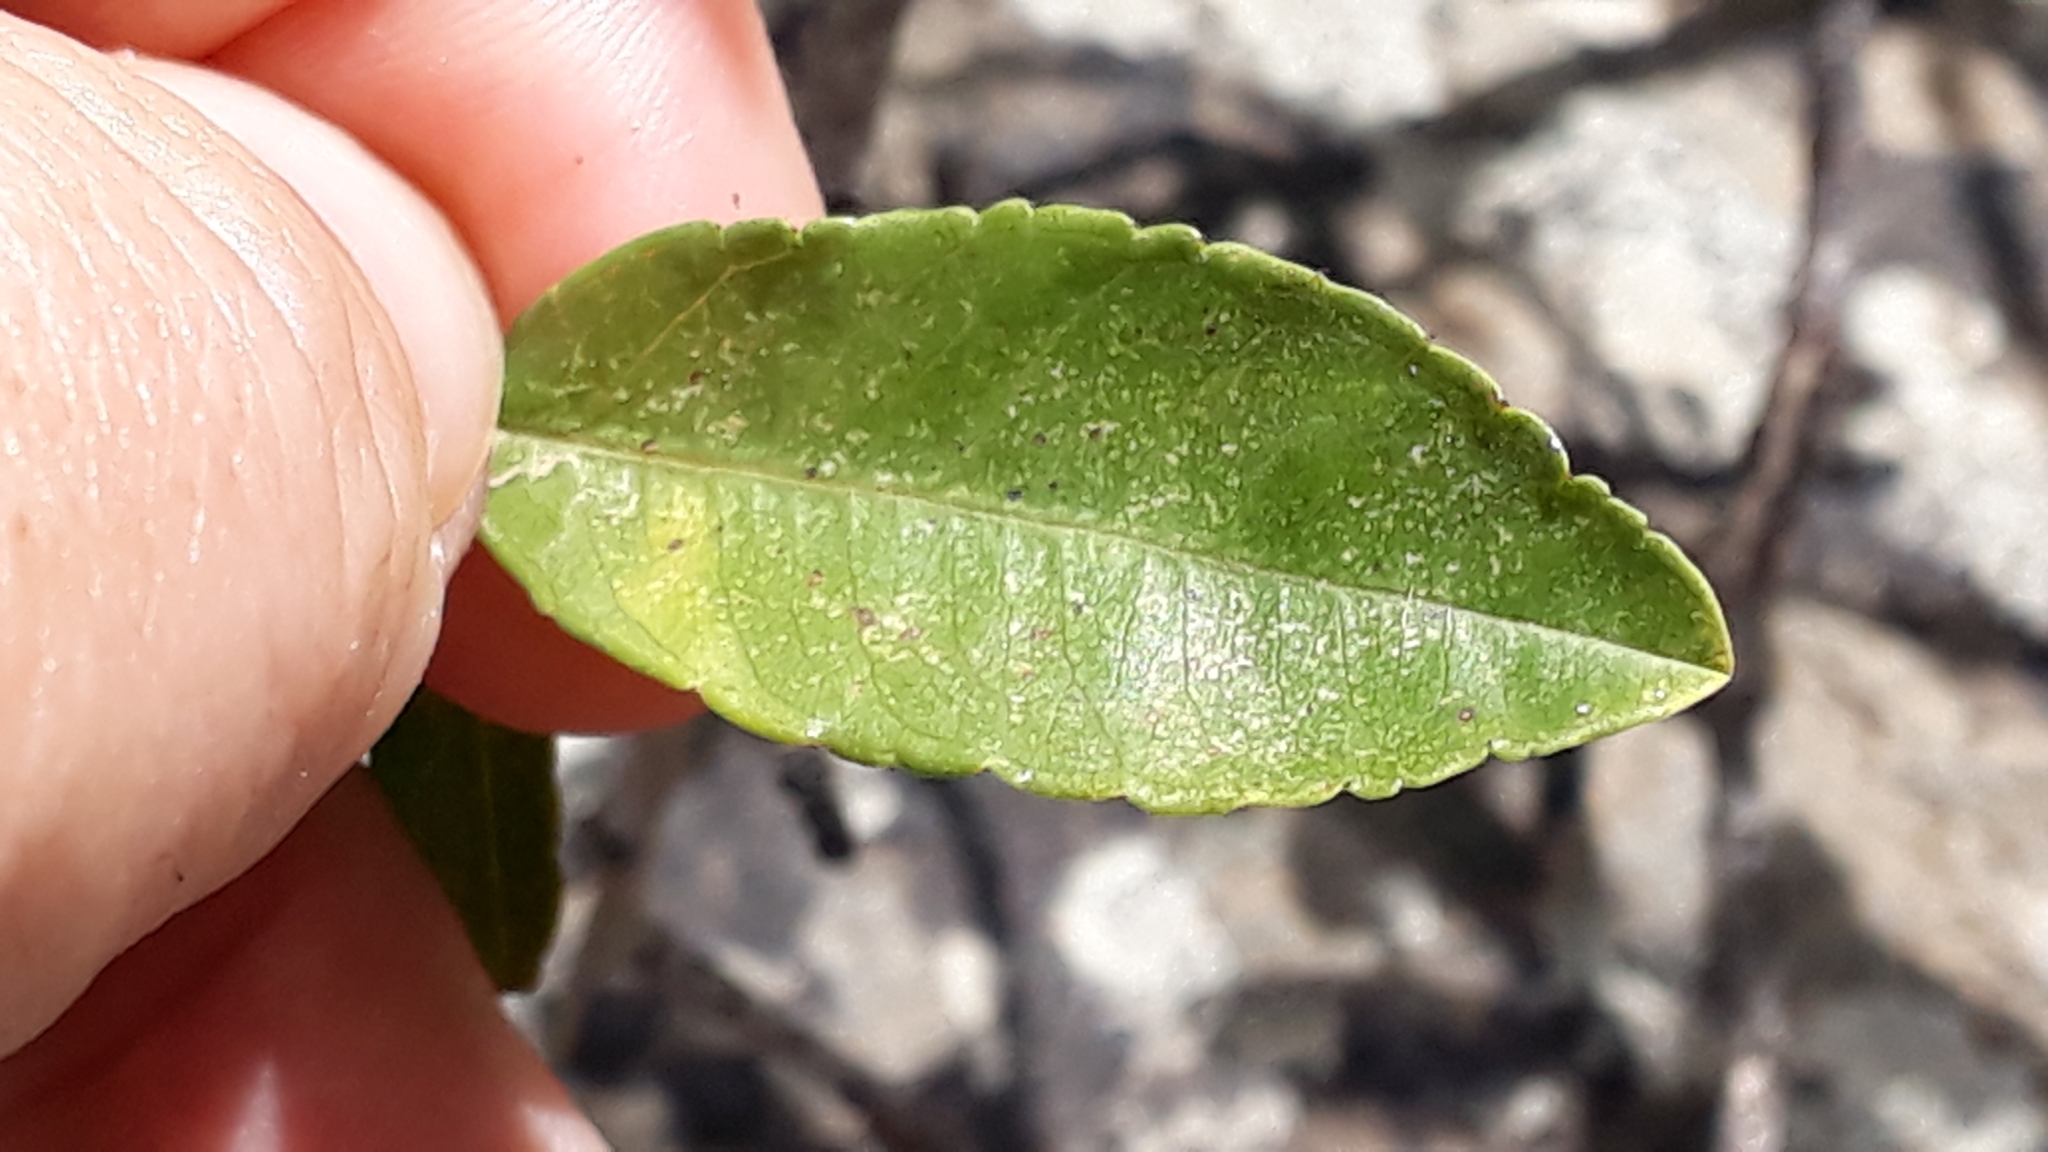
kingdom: Plantae
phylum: Tracheophyta
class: Magnoliopsida
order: Rosales
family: Rhamnaceae
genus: Rhamnus
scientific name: Rhamnus crenulata
